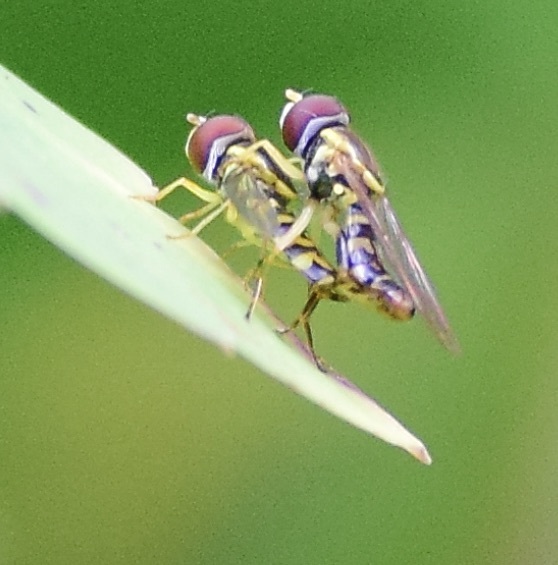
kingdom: Animalia
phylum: Arthropoda
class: Insecta
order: Diptera
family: Syrphidae
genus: Toxomerus
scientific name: Toxomerus geminatus
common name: Eastern calligrapher
